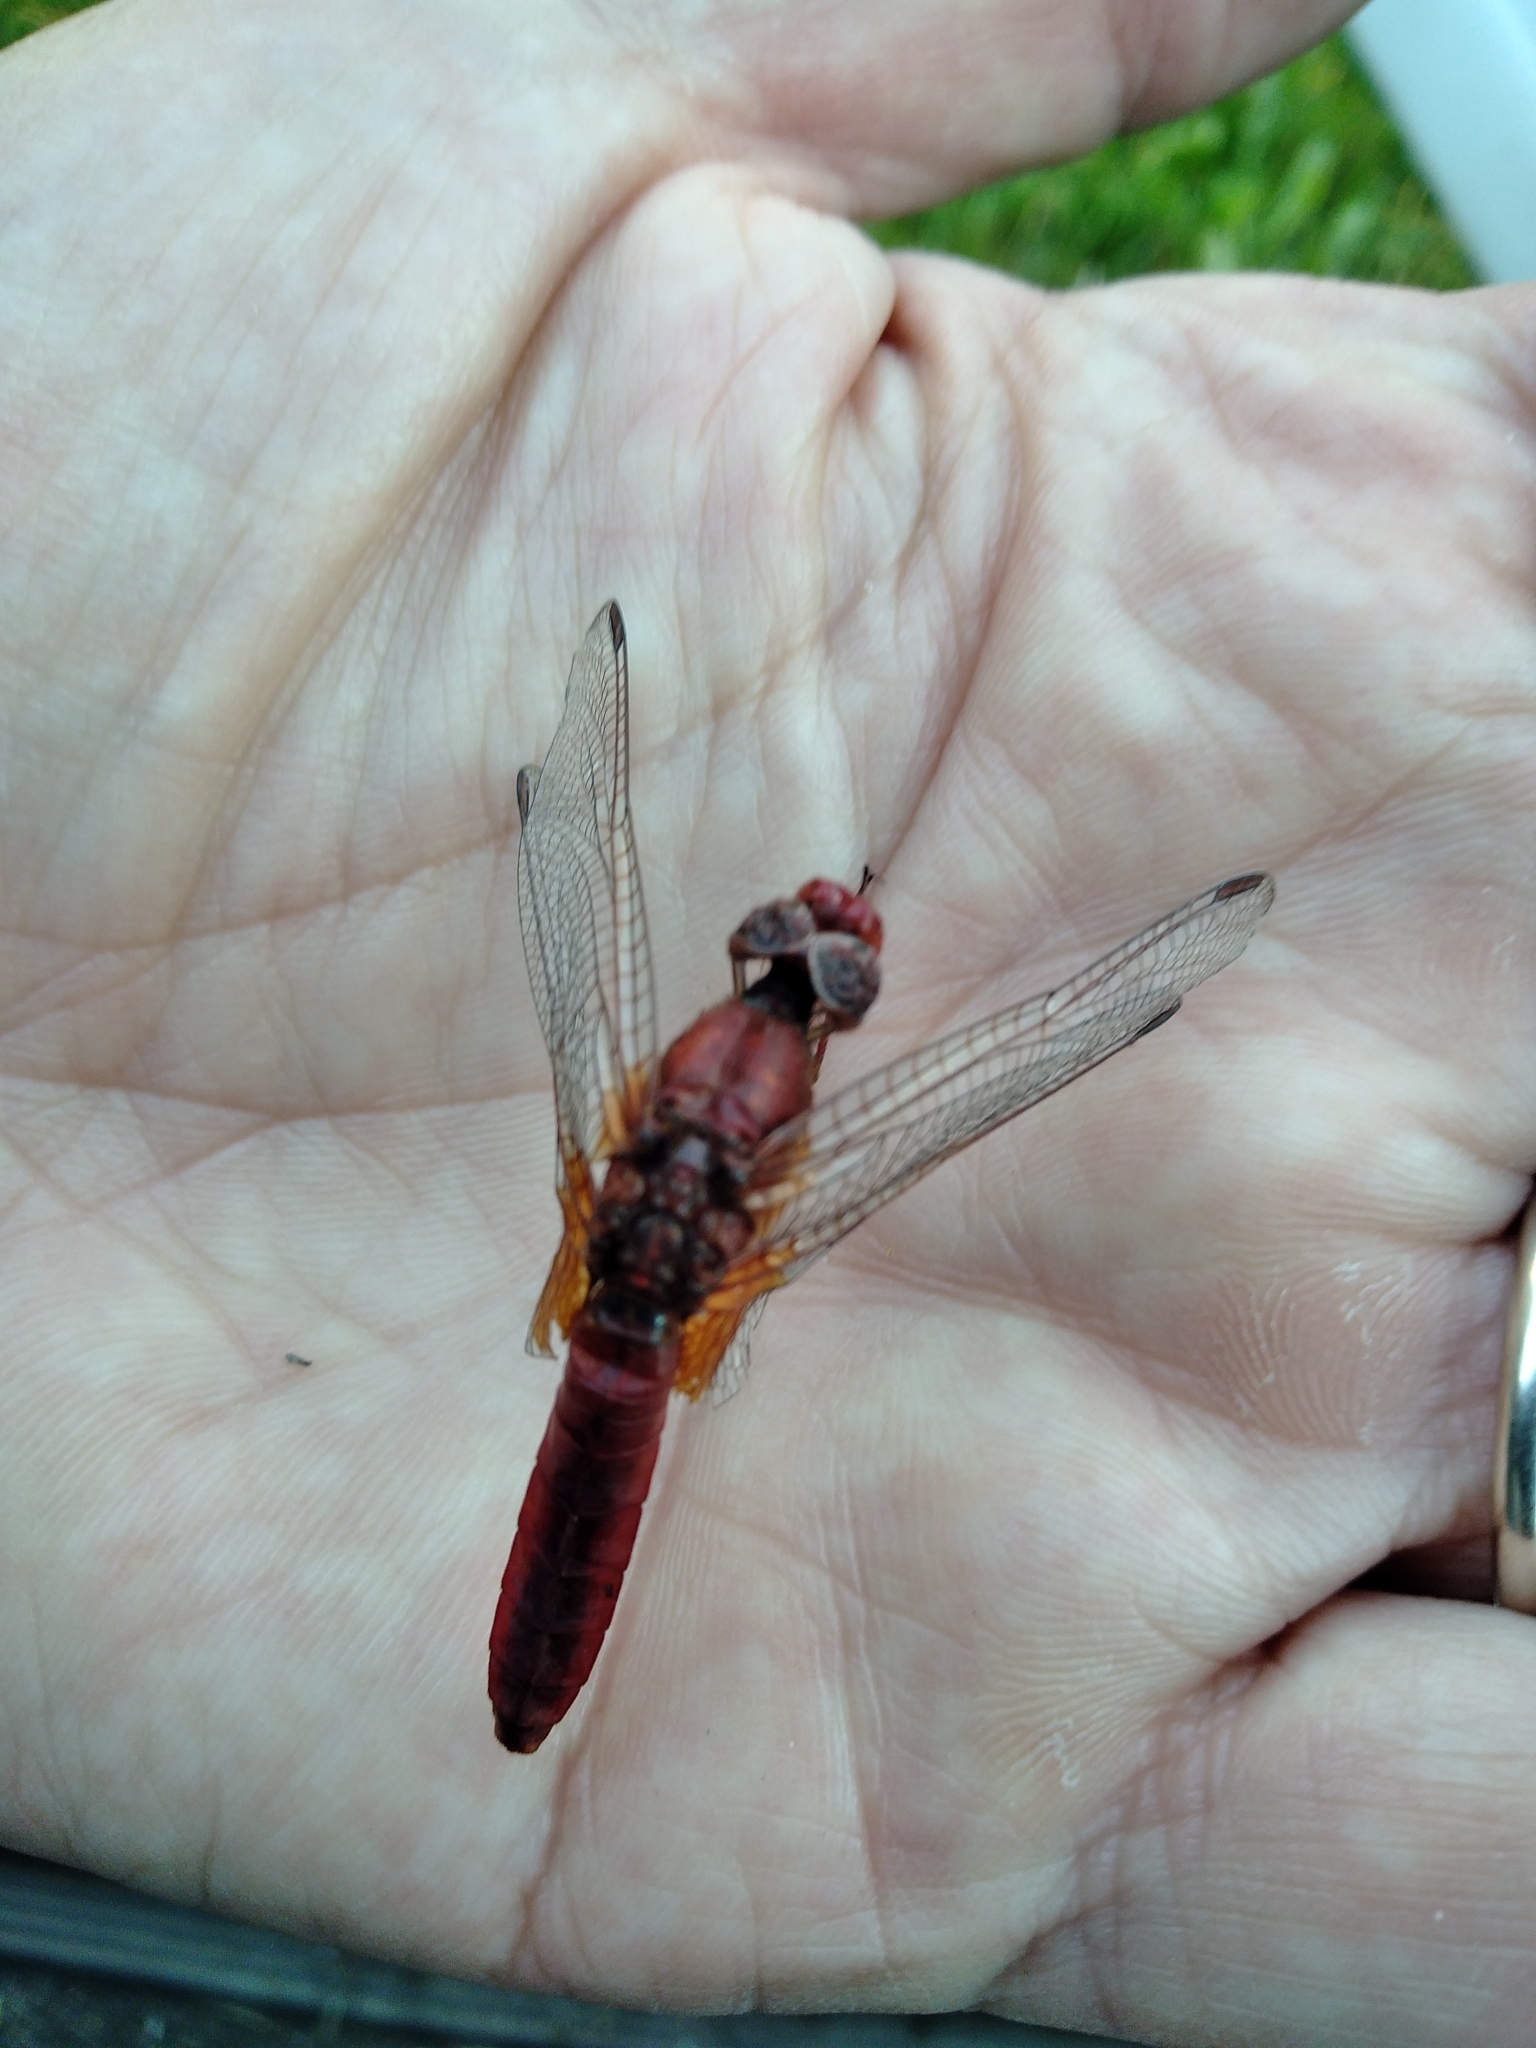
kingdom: Animalia
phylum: Arthropoda
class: Insecta
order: Odonata
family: Libellulidae
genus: Crocothemis
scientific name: Crocothemis erythraea
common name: Scarlet dragonfly
